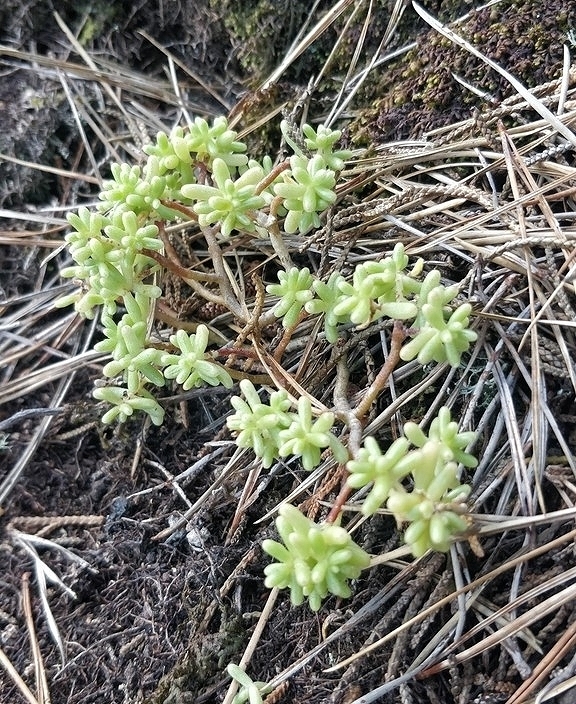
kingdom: Plantae
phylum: Tracheophyta
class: Magnoliopsida
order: Saxifragales
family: Crassulaceae
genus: Sedum
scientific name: Sedum nudum
